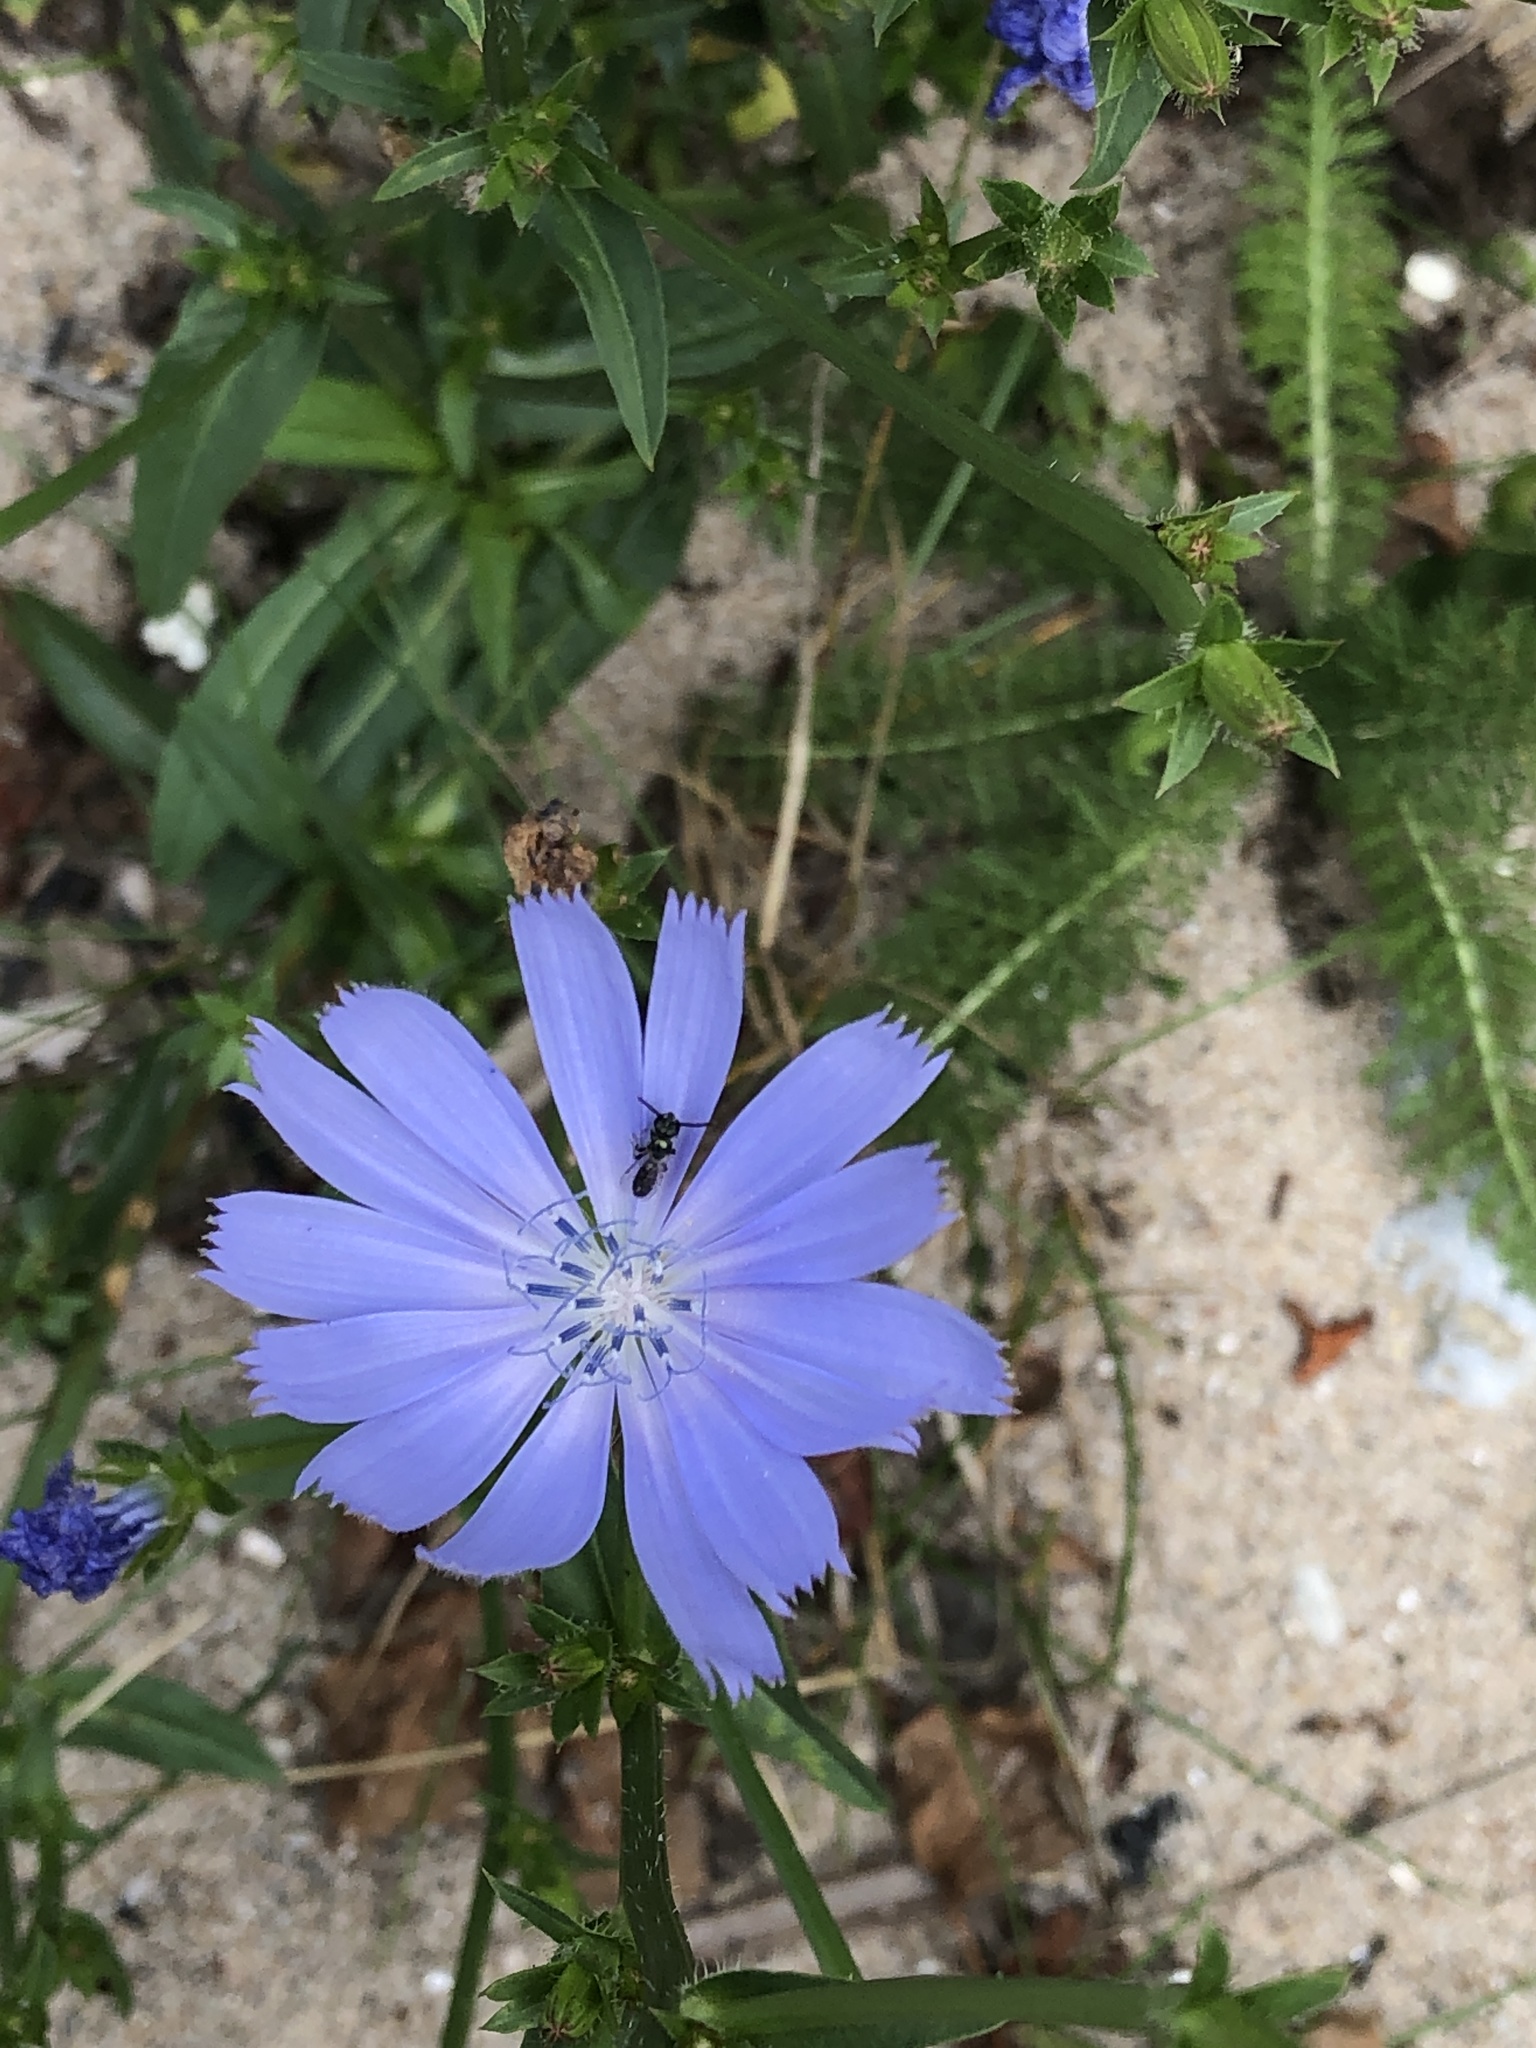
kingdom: Plantae
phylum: Tracheophyta
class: Magnoliopsida
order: Asterales
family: Asteraceae
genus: Cichorium
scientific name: Cichorium intybus
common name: Chicory
